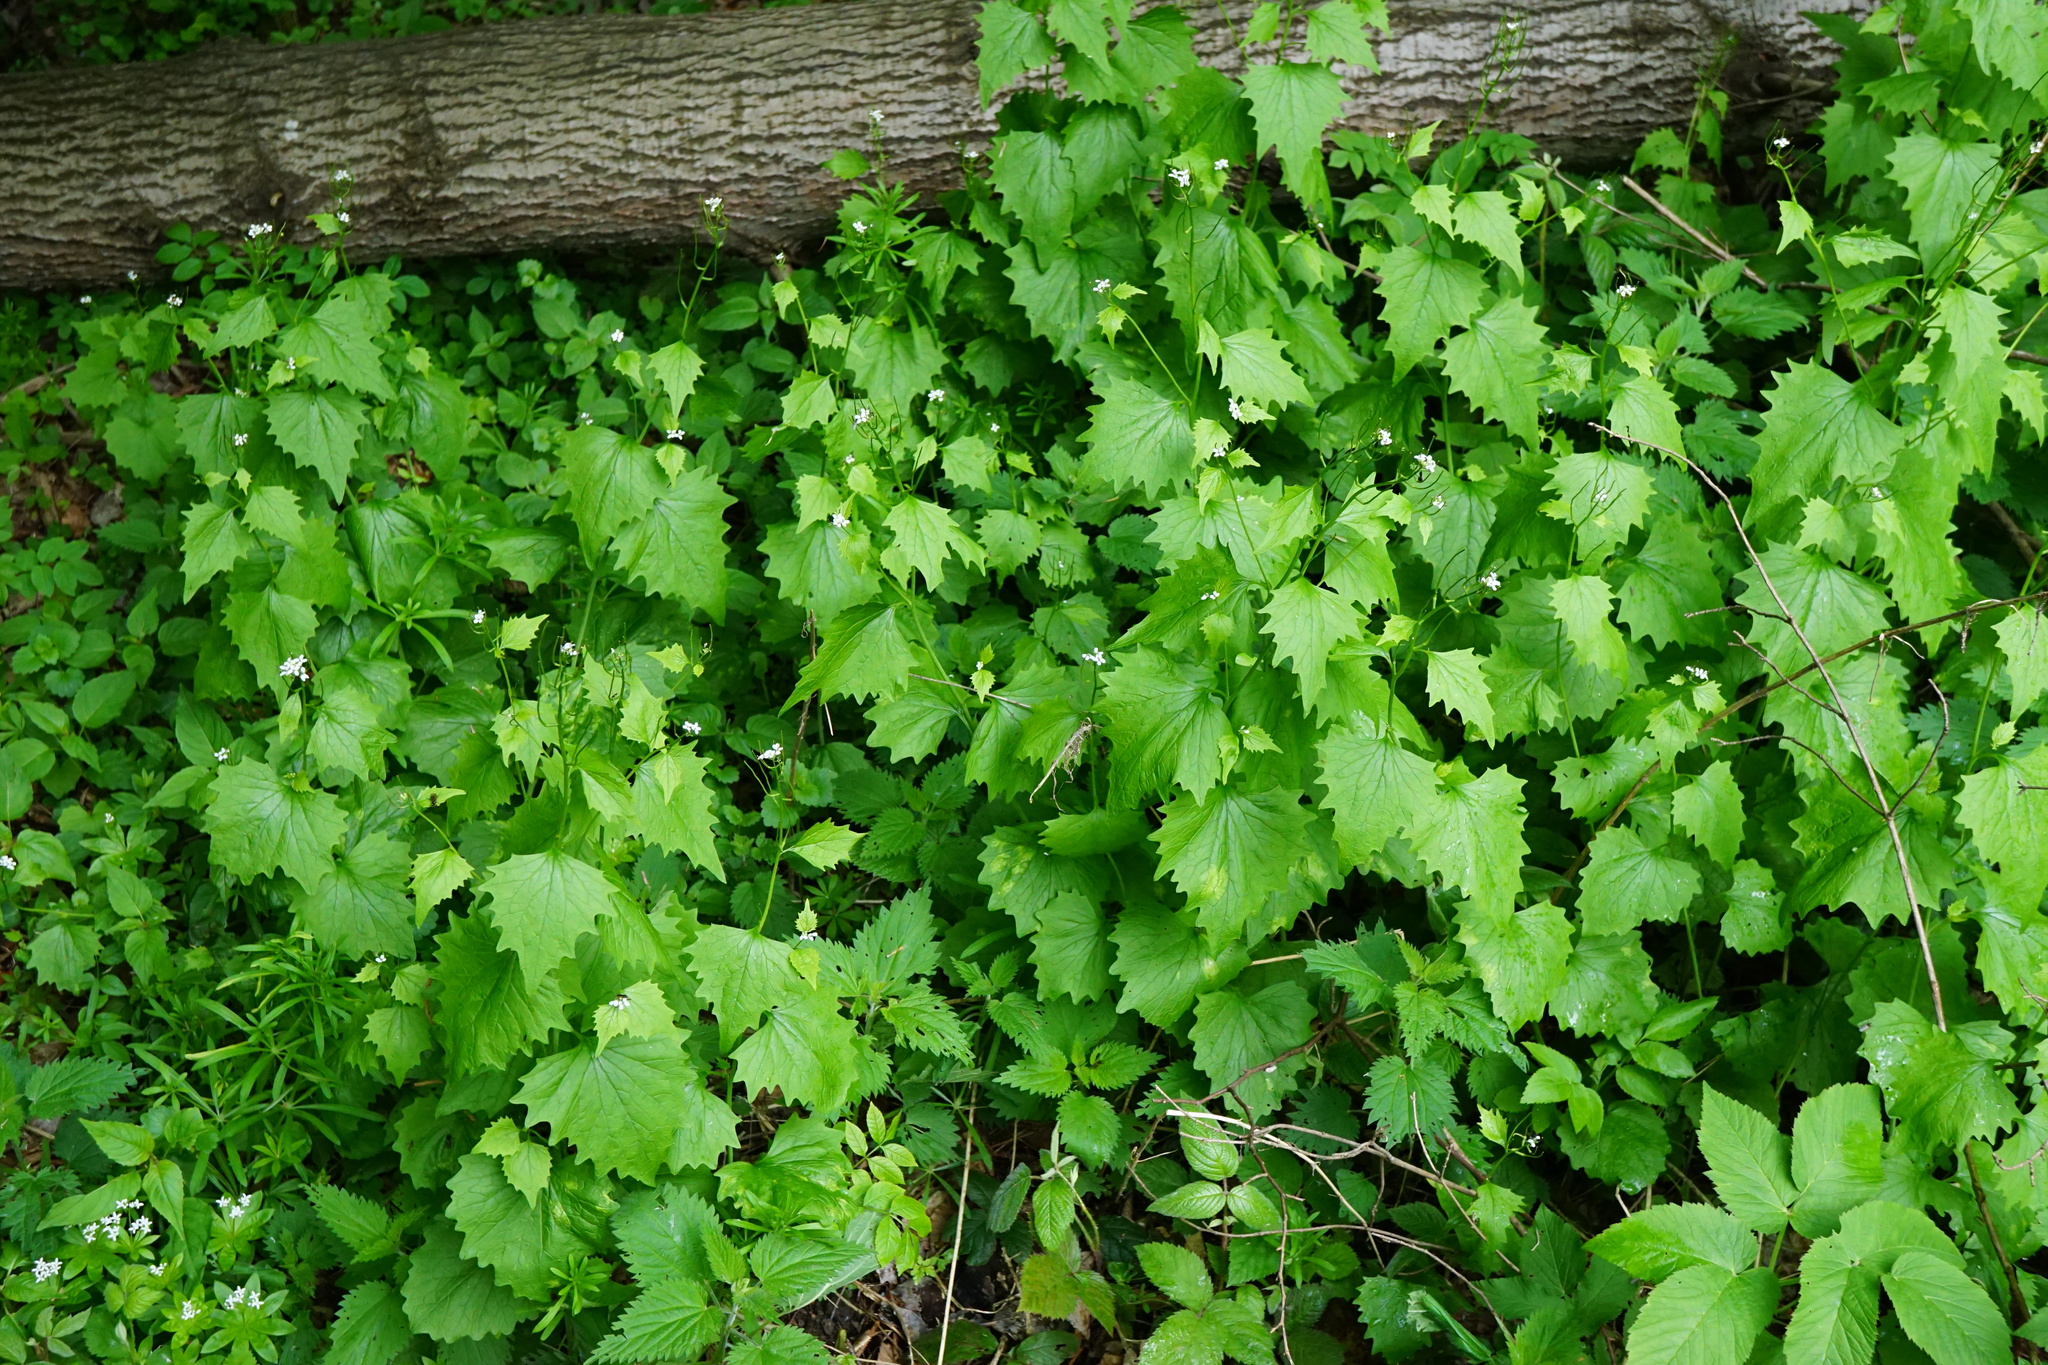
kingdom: Plantae
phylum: Tracheophyta
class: Magnoliopsida
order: Brassicales
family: Brassicaceae
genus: Alliaria
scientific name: Alliaria petiolata
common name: Garlic mustard
